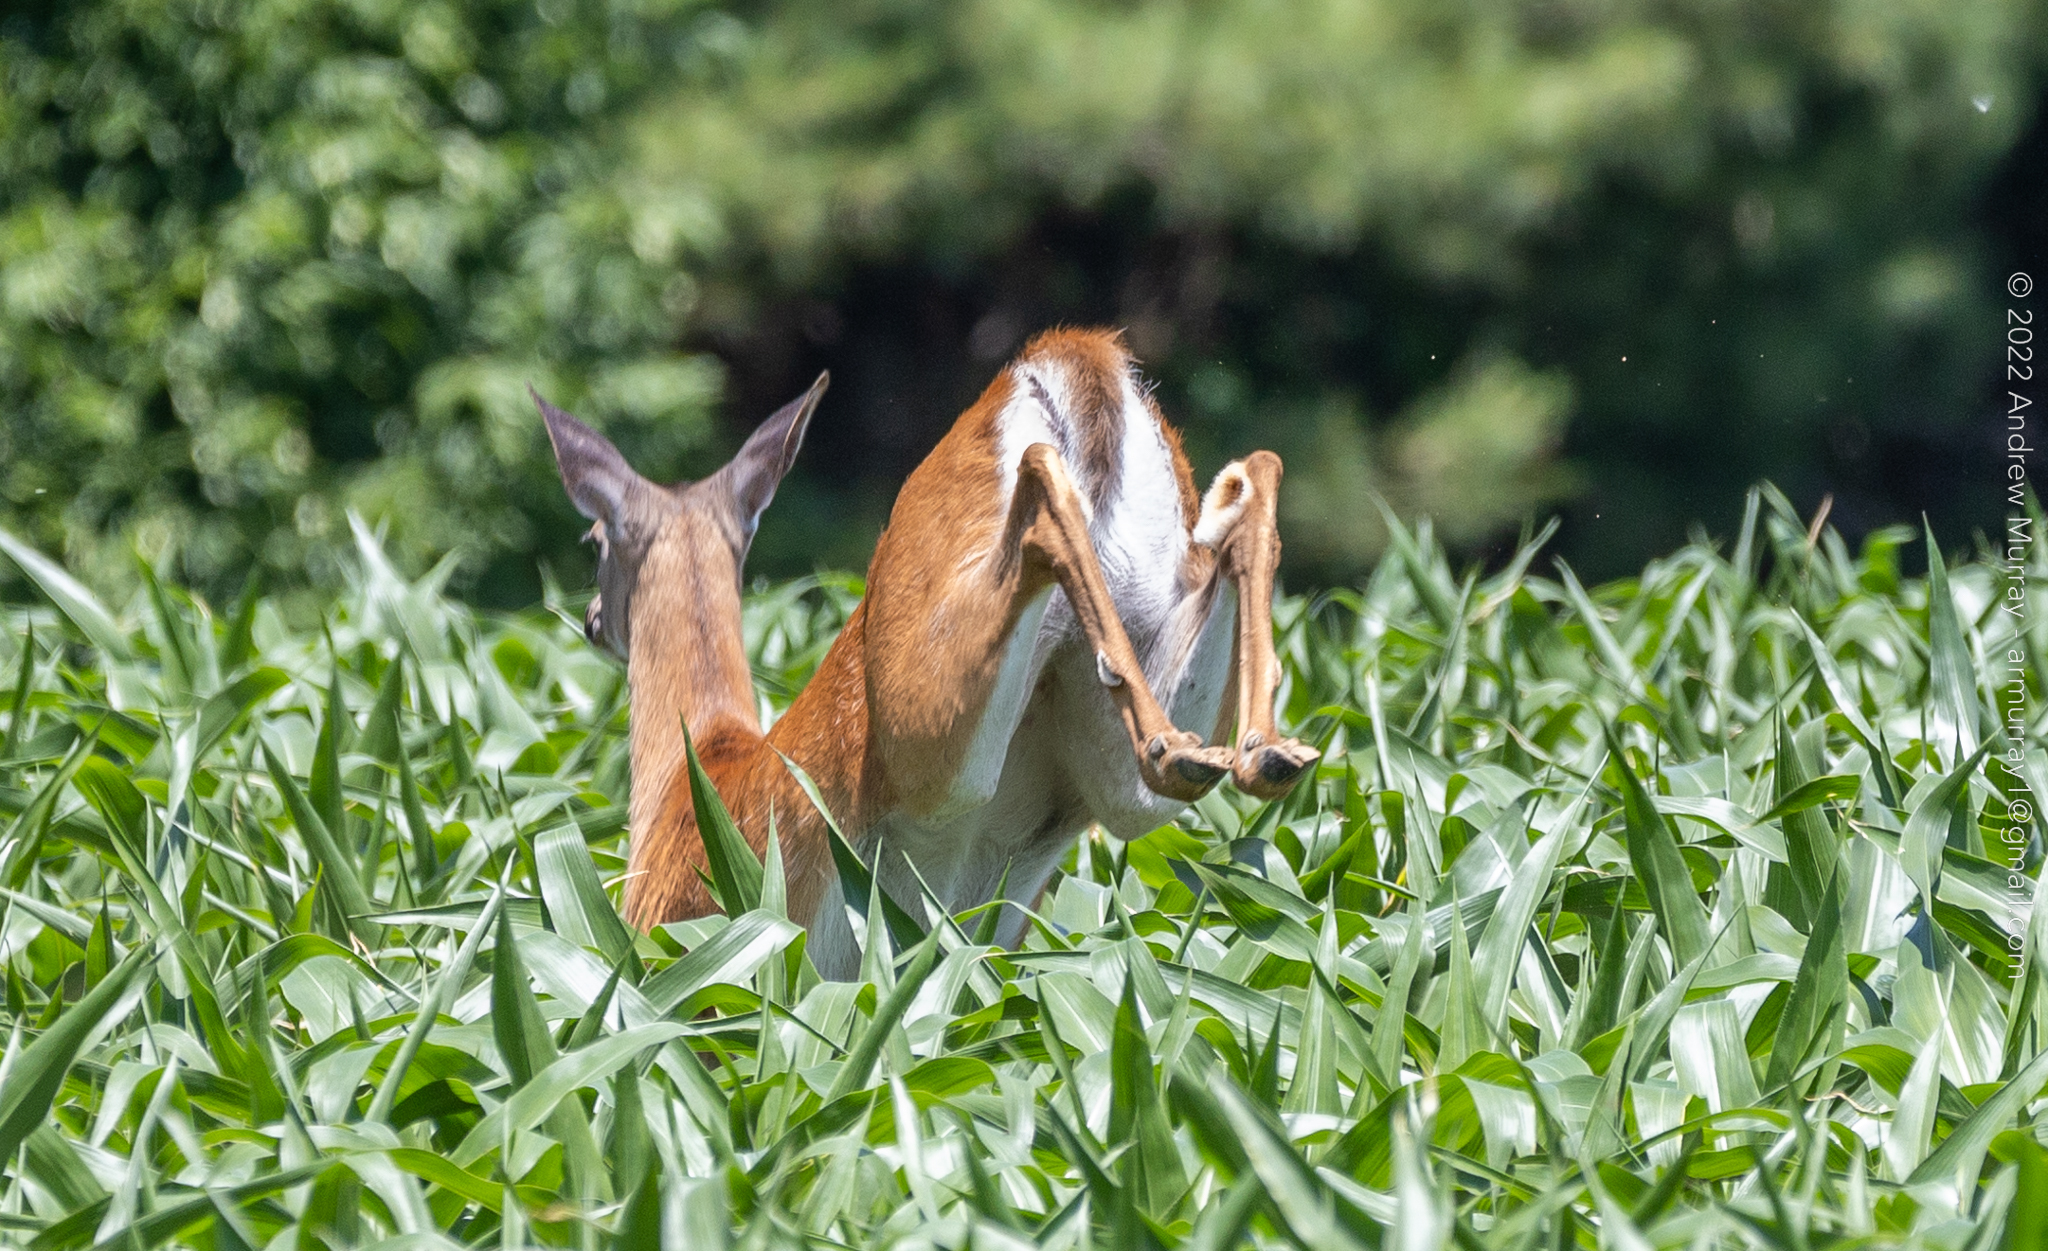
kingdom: Animalia
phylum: Chordata
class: Mammalia
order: Artiodactyla
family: Cervidae
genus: Odocoileus
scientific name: Odocoileus virginianus
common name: White-tailed deer
